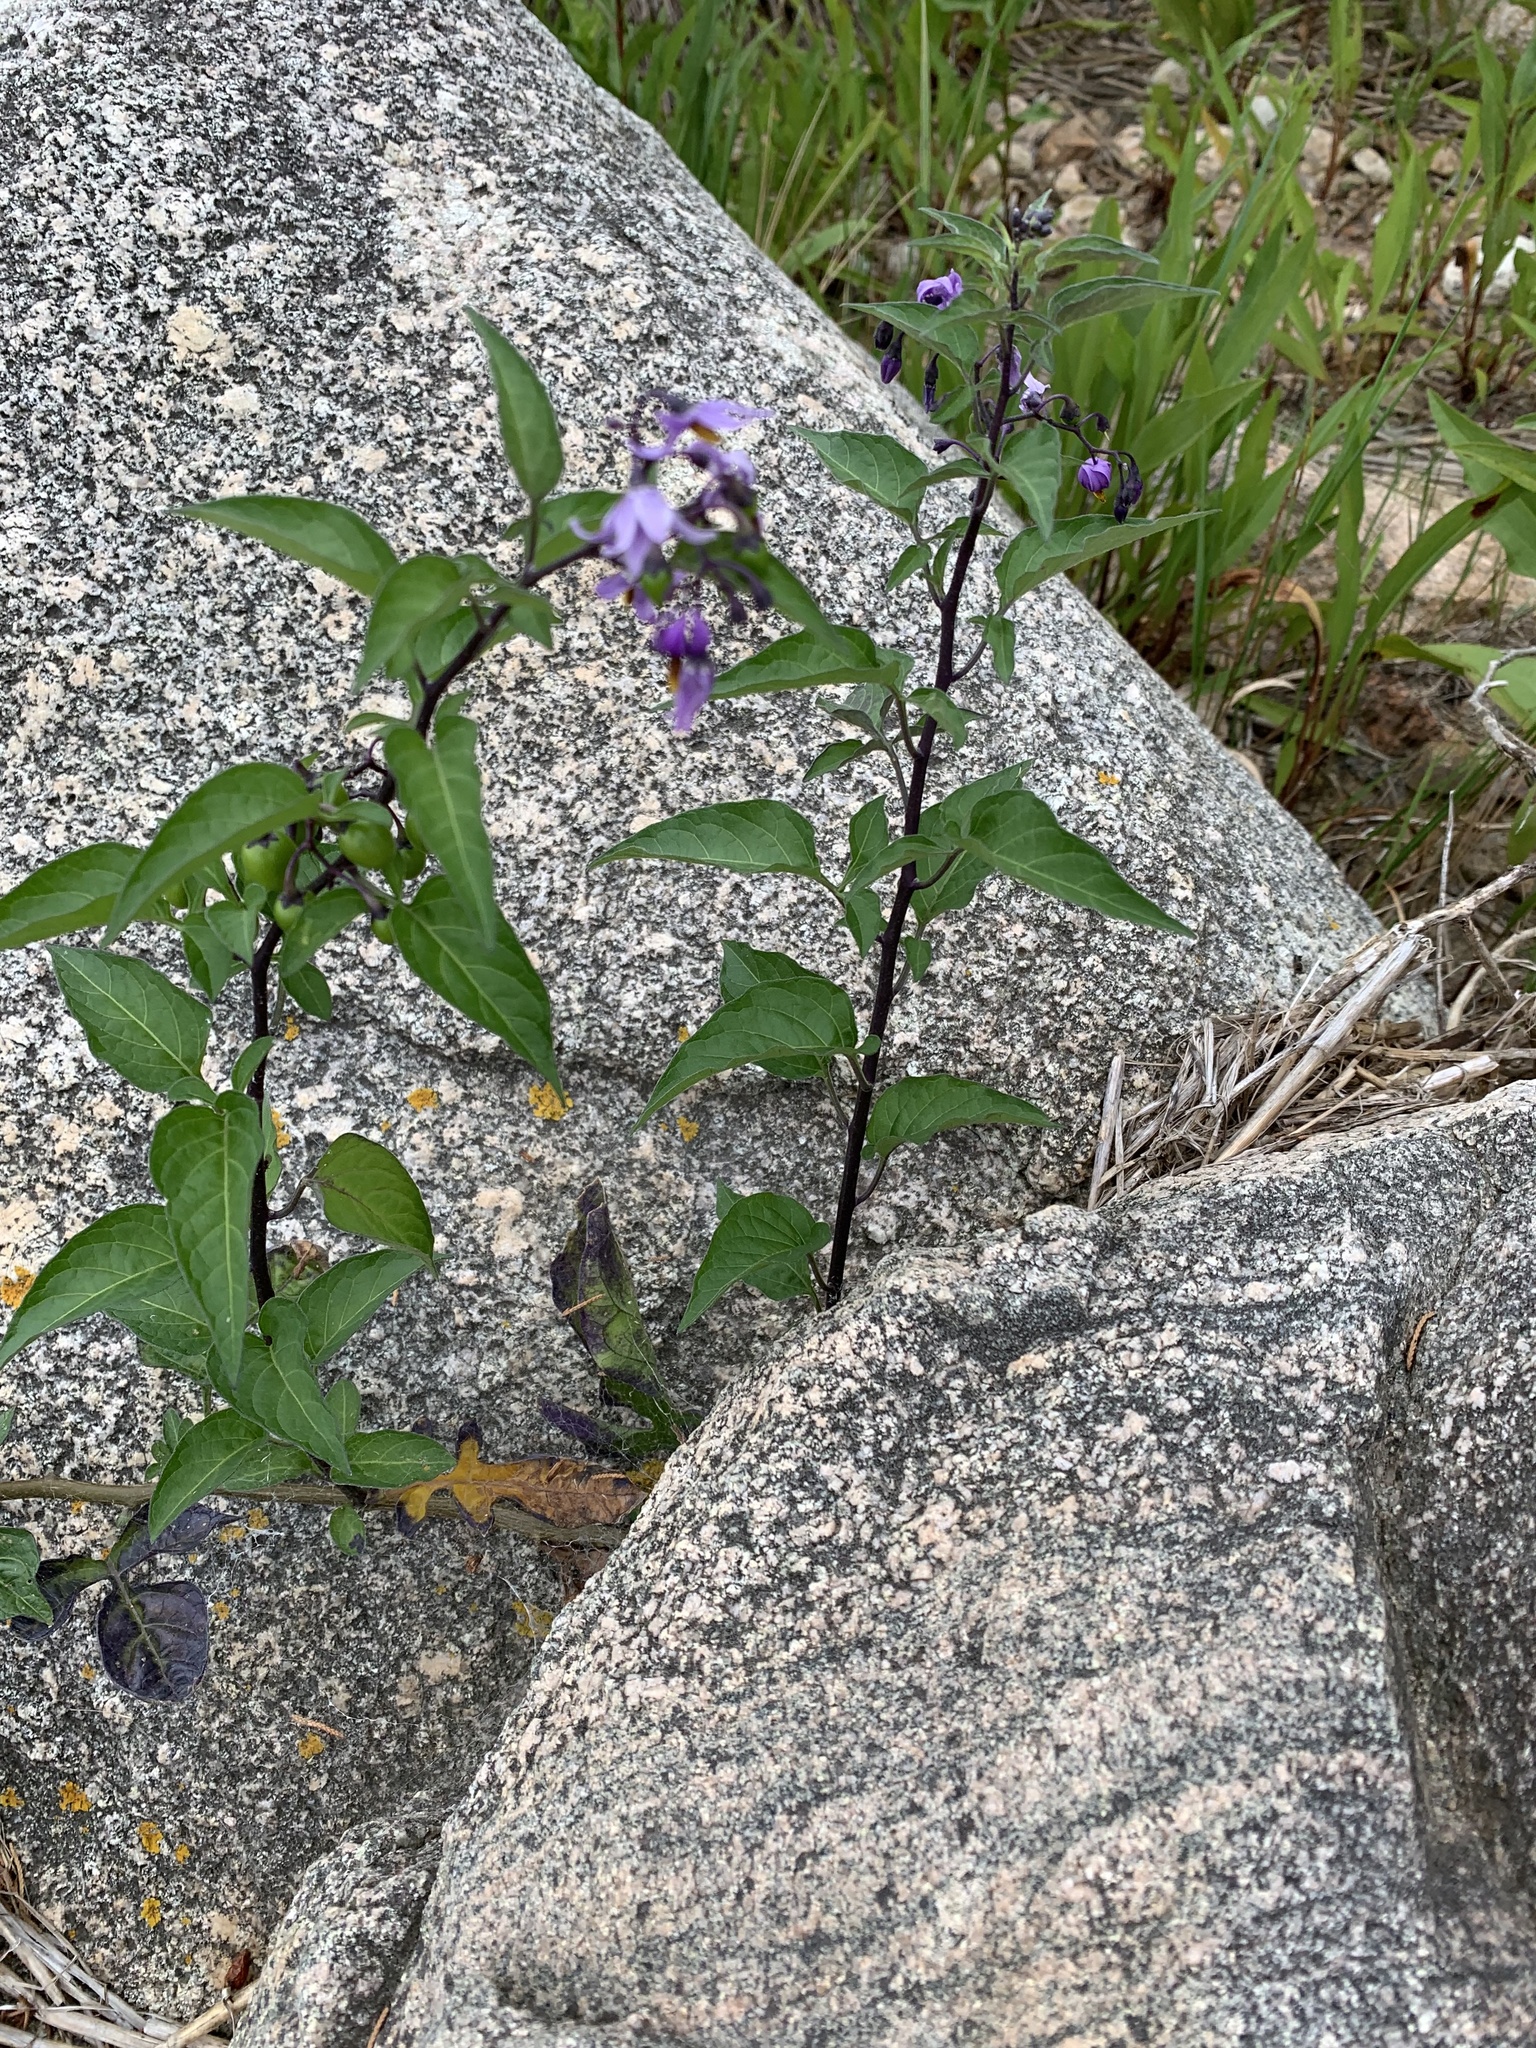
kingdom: Plantae
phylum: Tracheophyta
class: Magnoliopsida
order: Solanales
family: Solanaceae
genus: Solanum
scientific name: Solanum dulcamara
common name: Climbing nightshade
